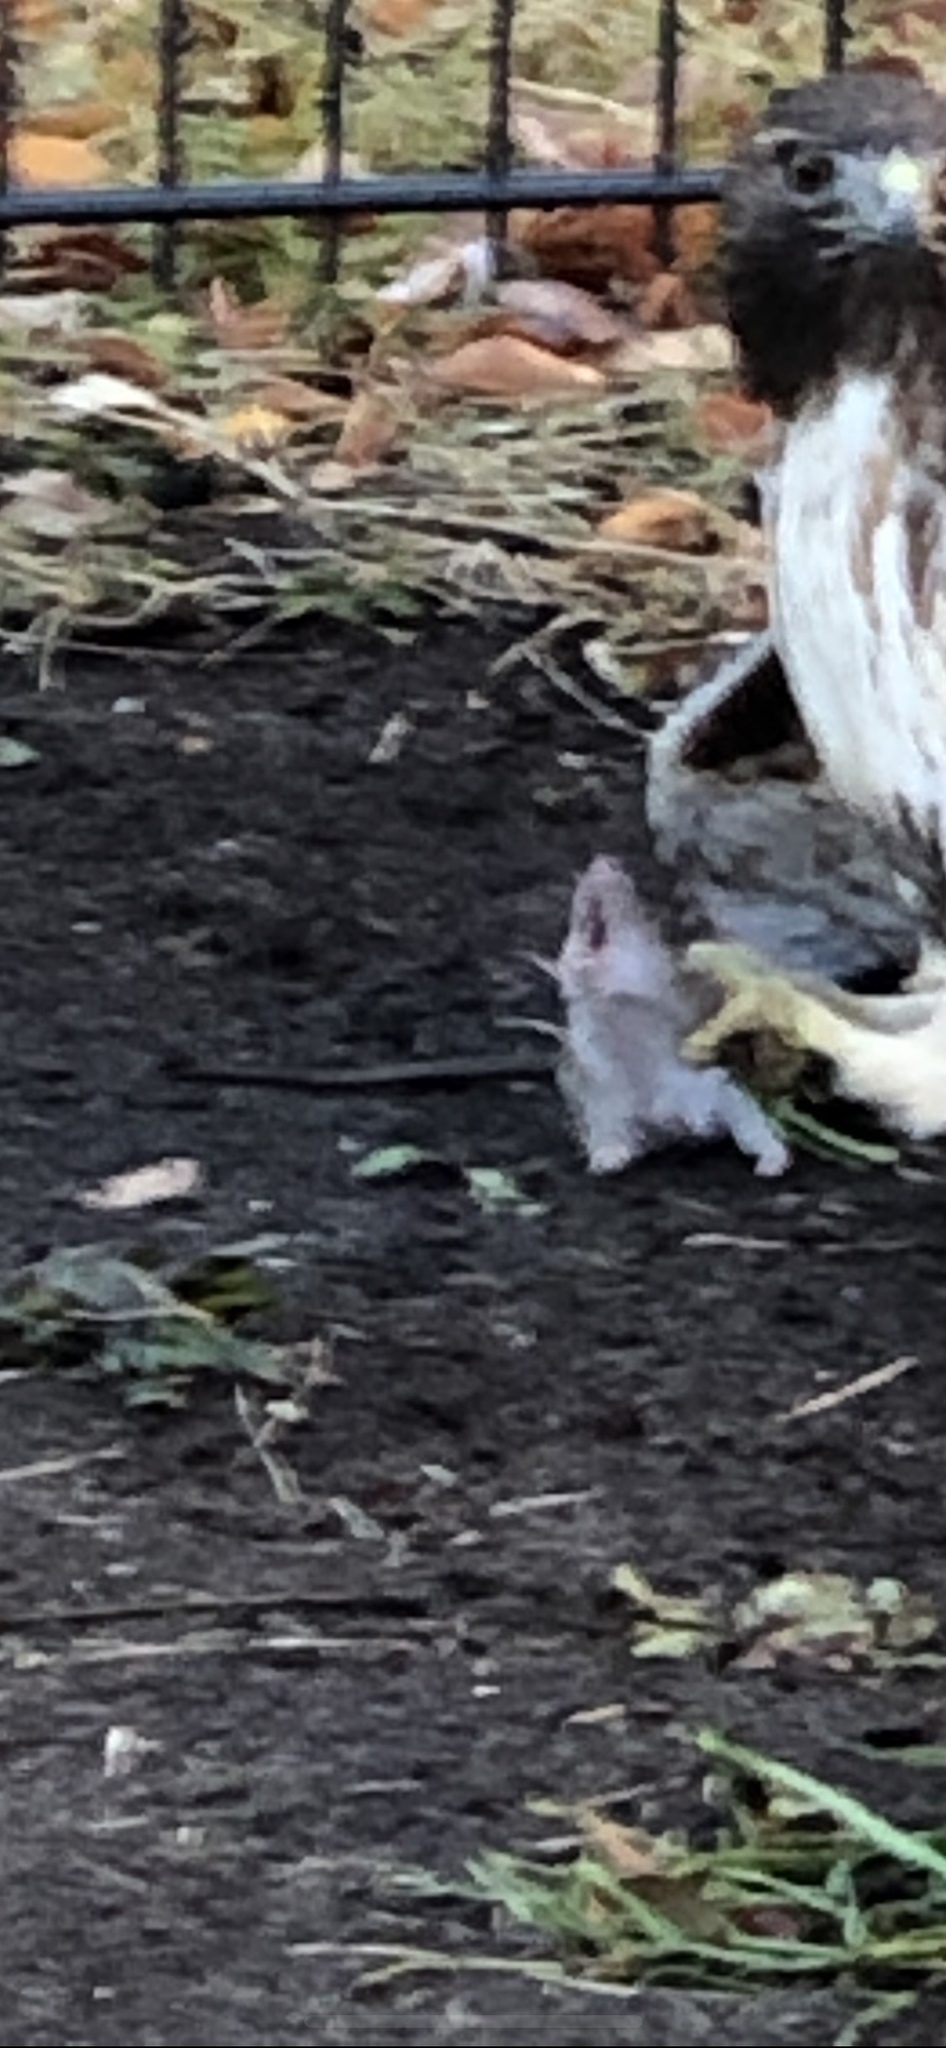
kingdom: Animalia
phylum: Chordata
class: Mammalia
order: Rodentia
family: Muridae
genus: Rattus
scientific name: Rattus norvegicus
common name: Brown rat
